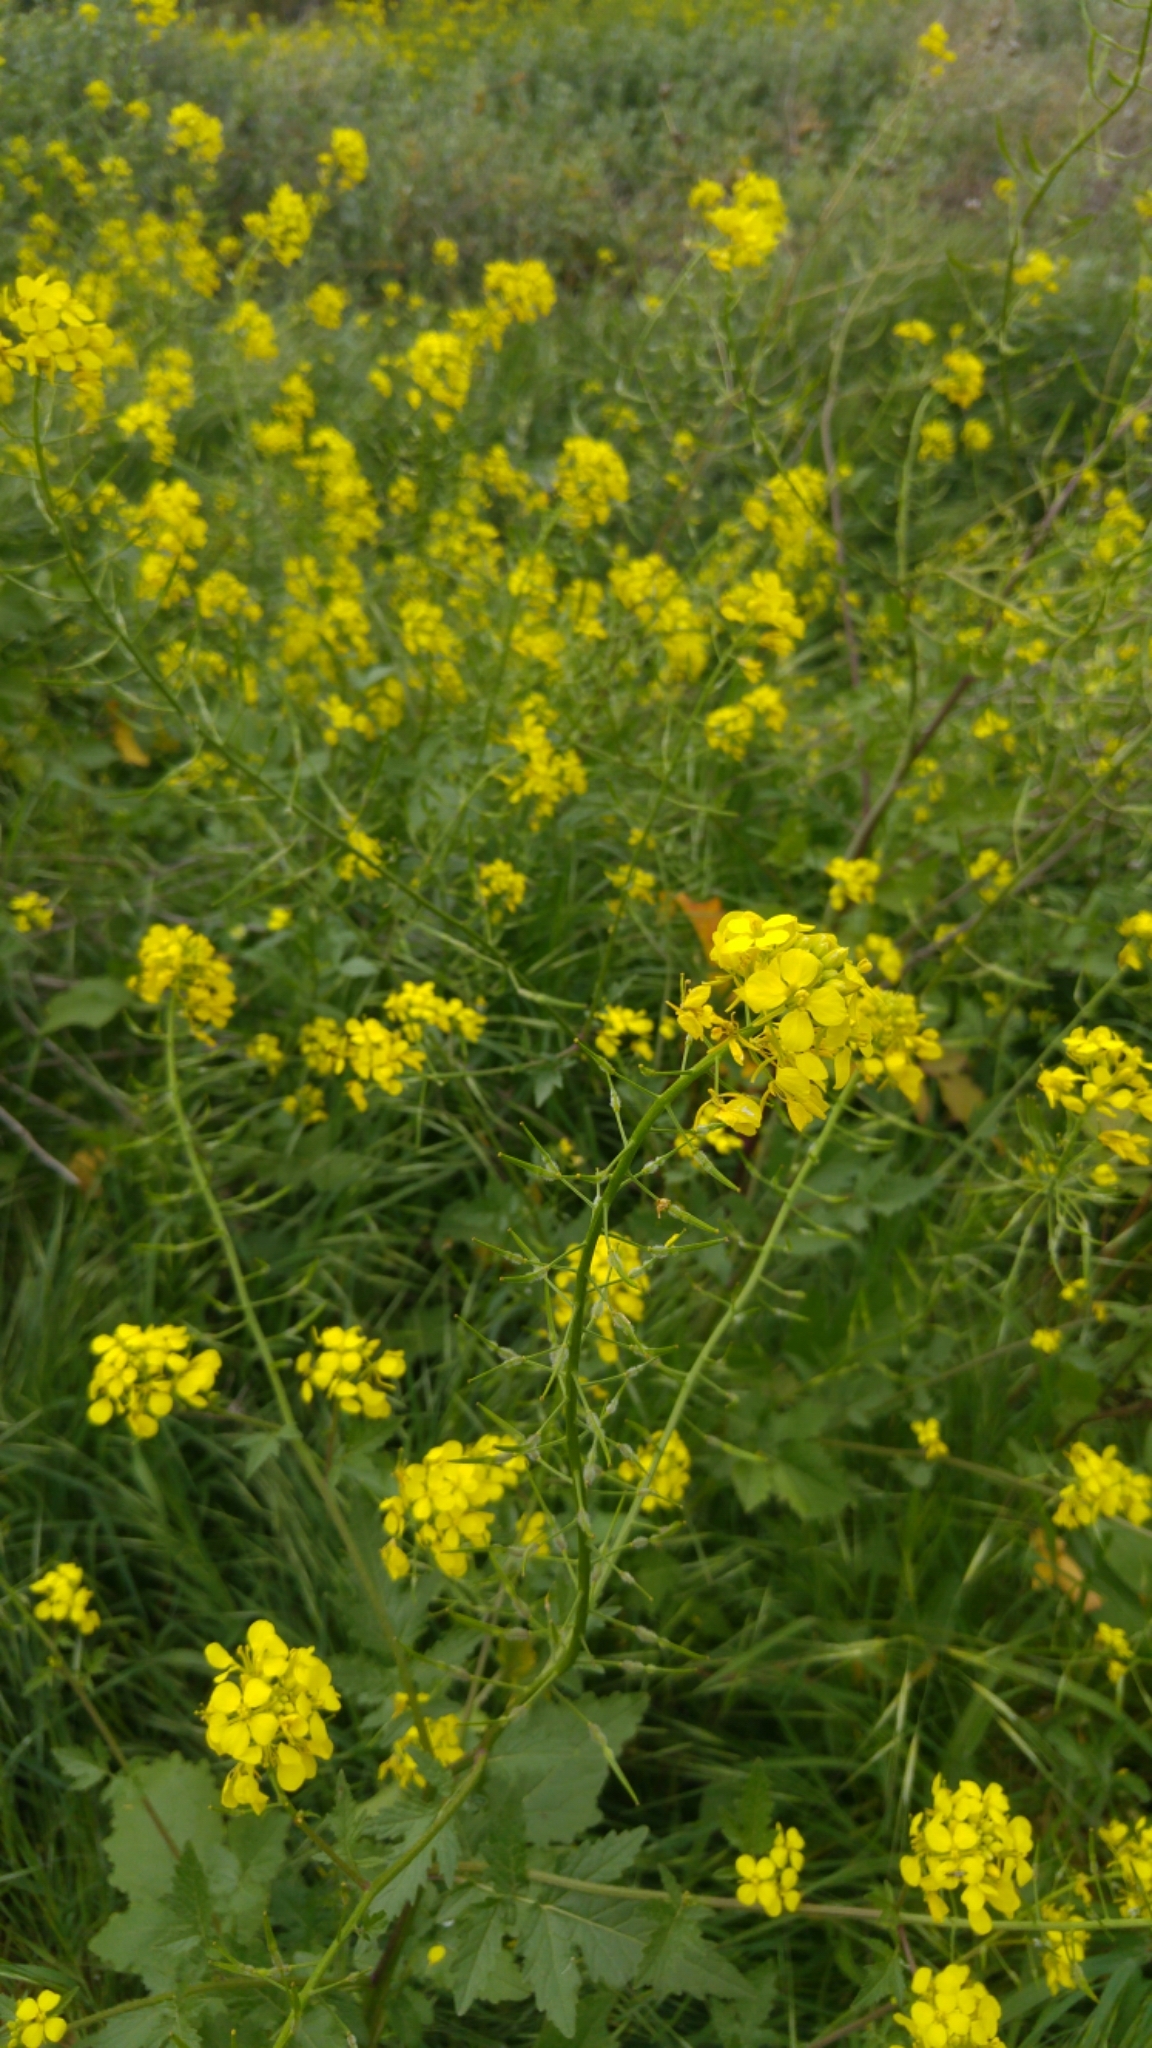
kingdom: Plantae
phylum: Tracheophyta
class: Magnoliopsida
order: Brassicales
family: Brassicaceae
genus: Sinapis
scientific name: Sinapis alba
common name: White mustard
